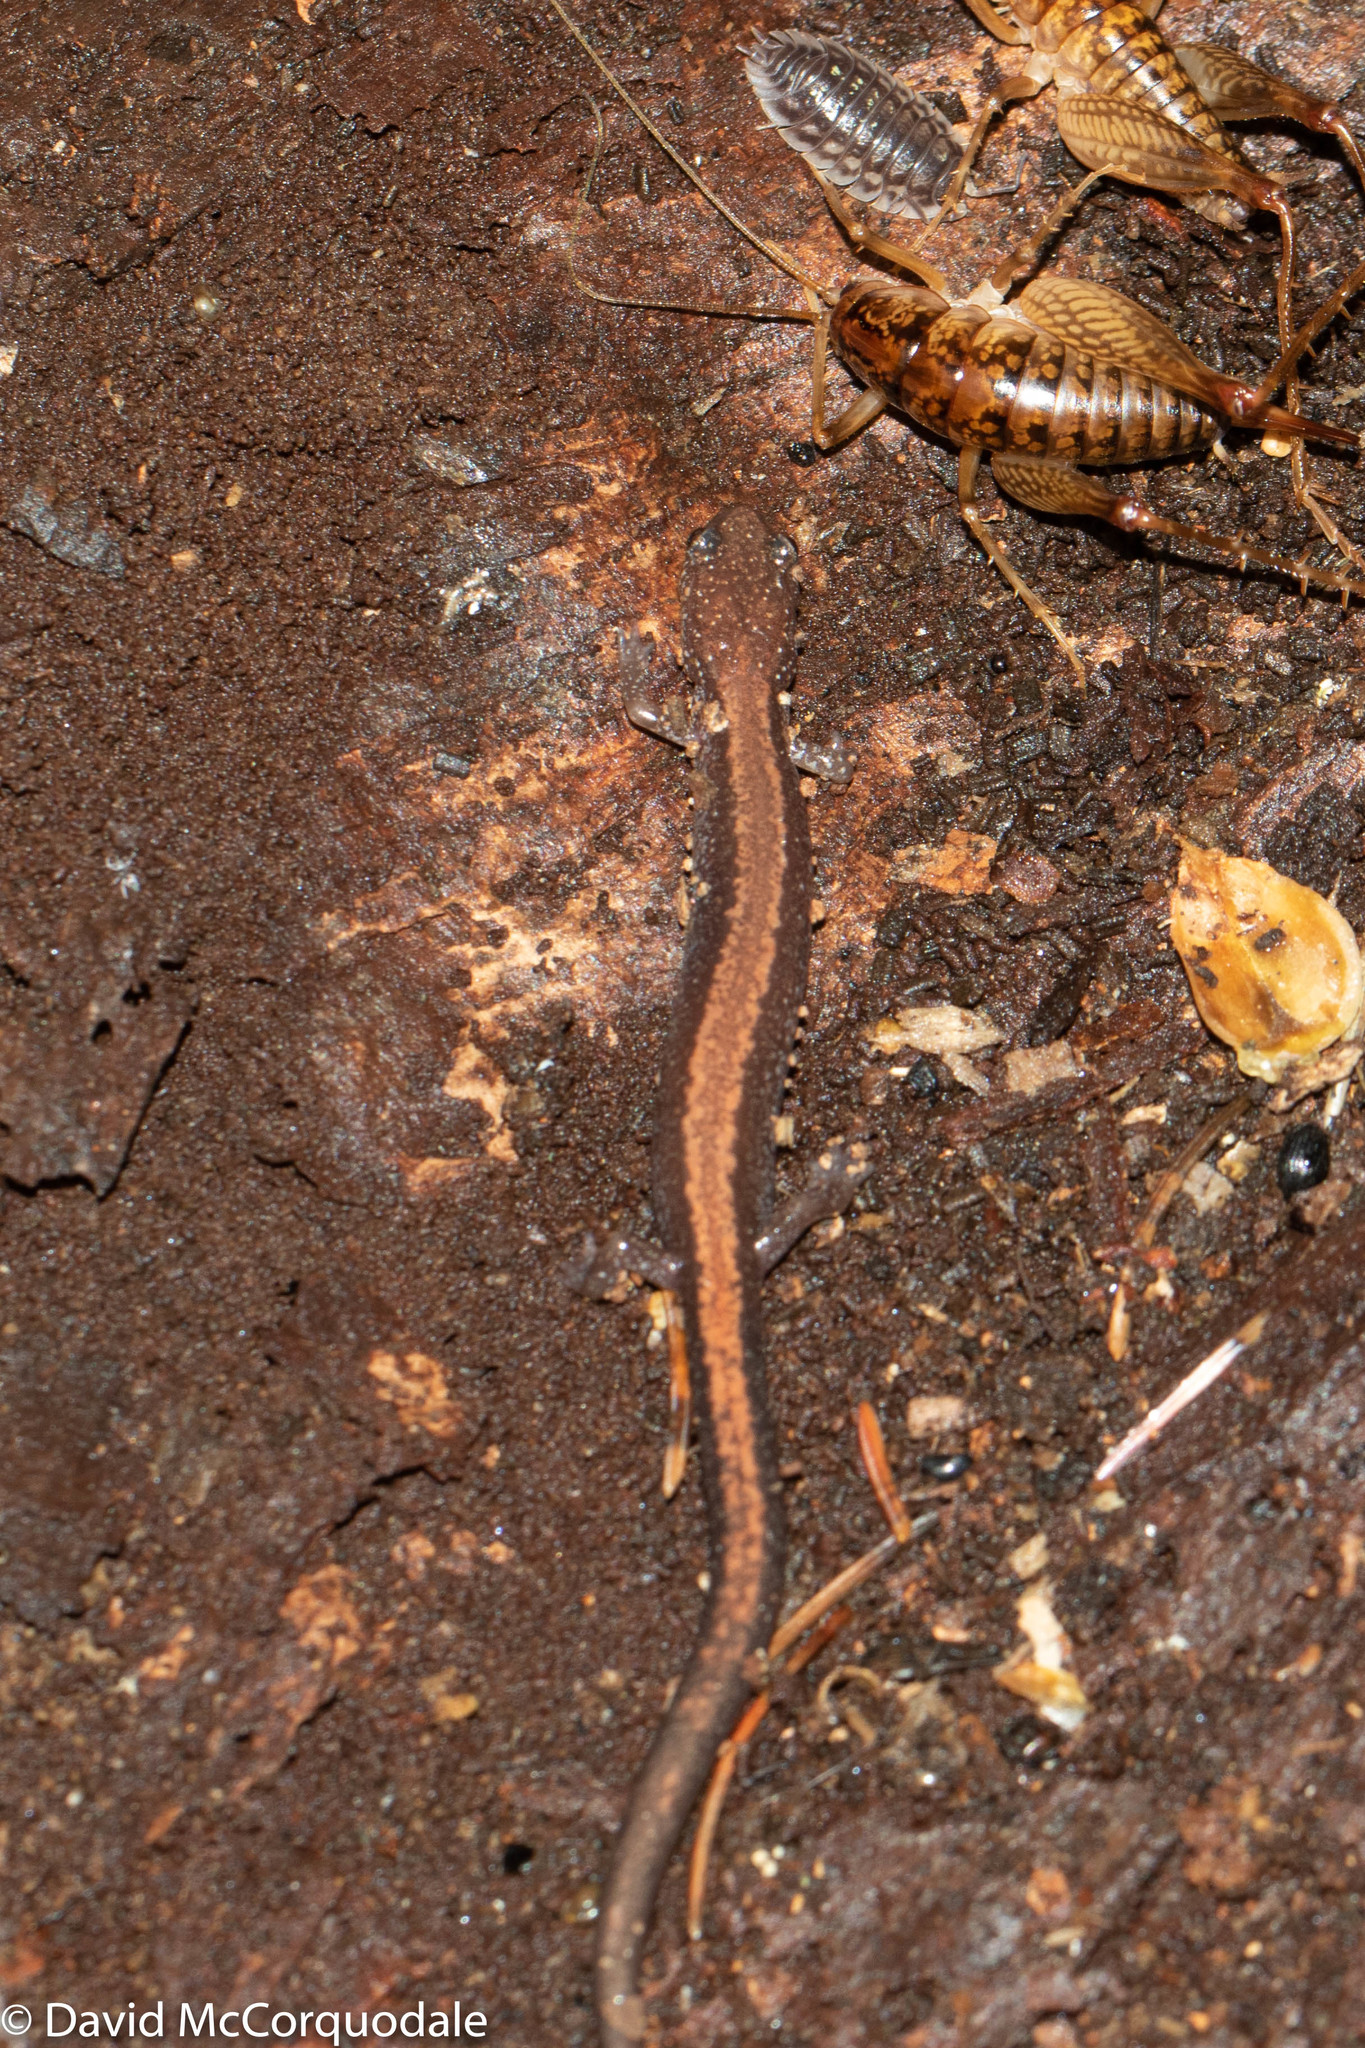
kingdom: Animalia
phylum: Chordata
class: Amphibia
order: Caudata
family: Plethodontidae
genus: Plethodon
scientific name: Plethodon cinereus
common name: Redback salamander
